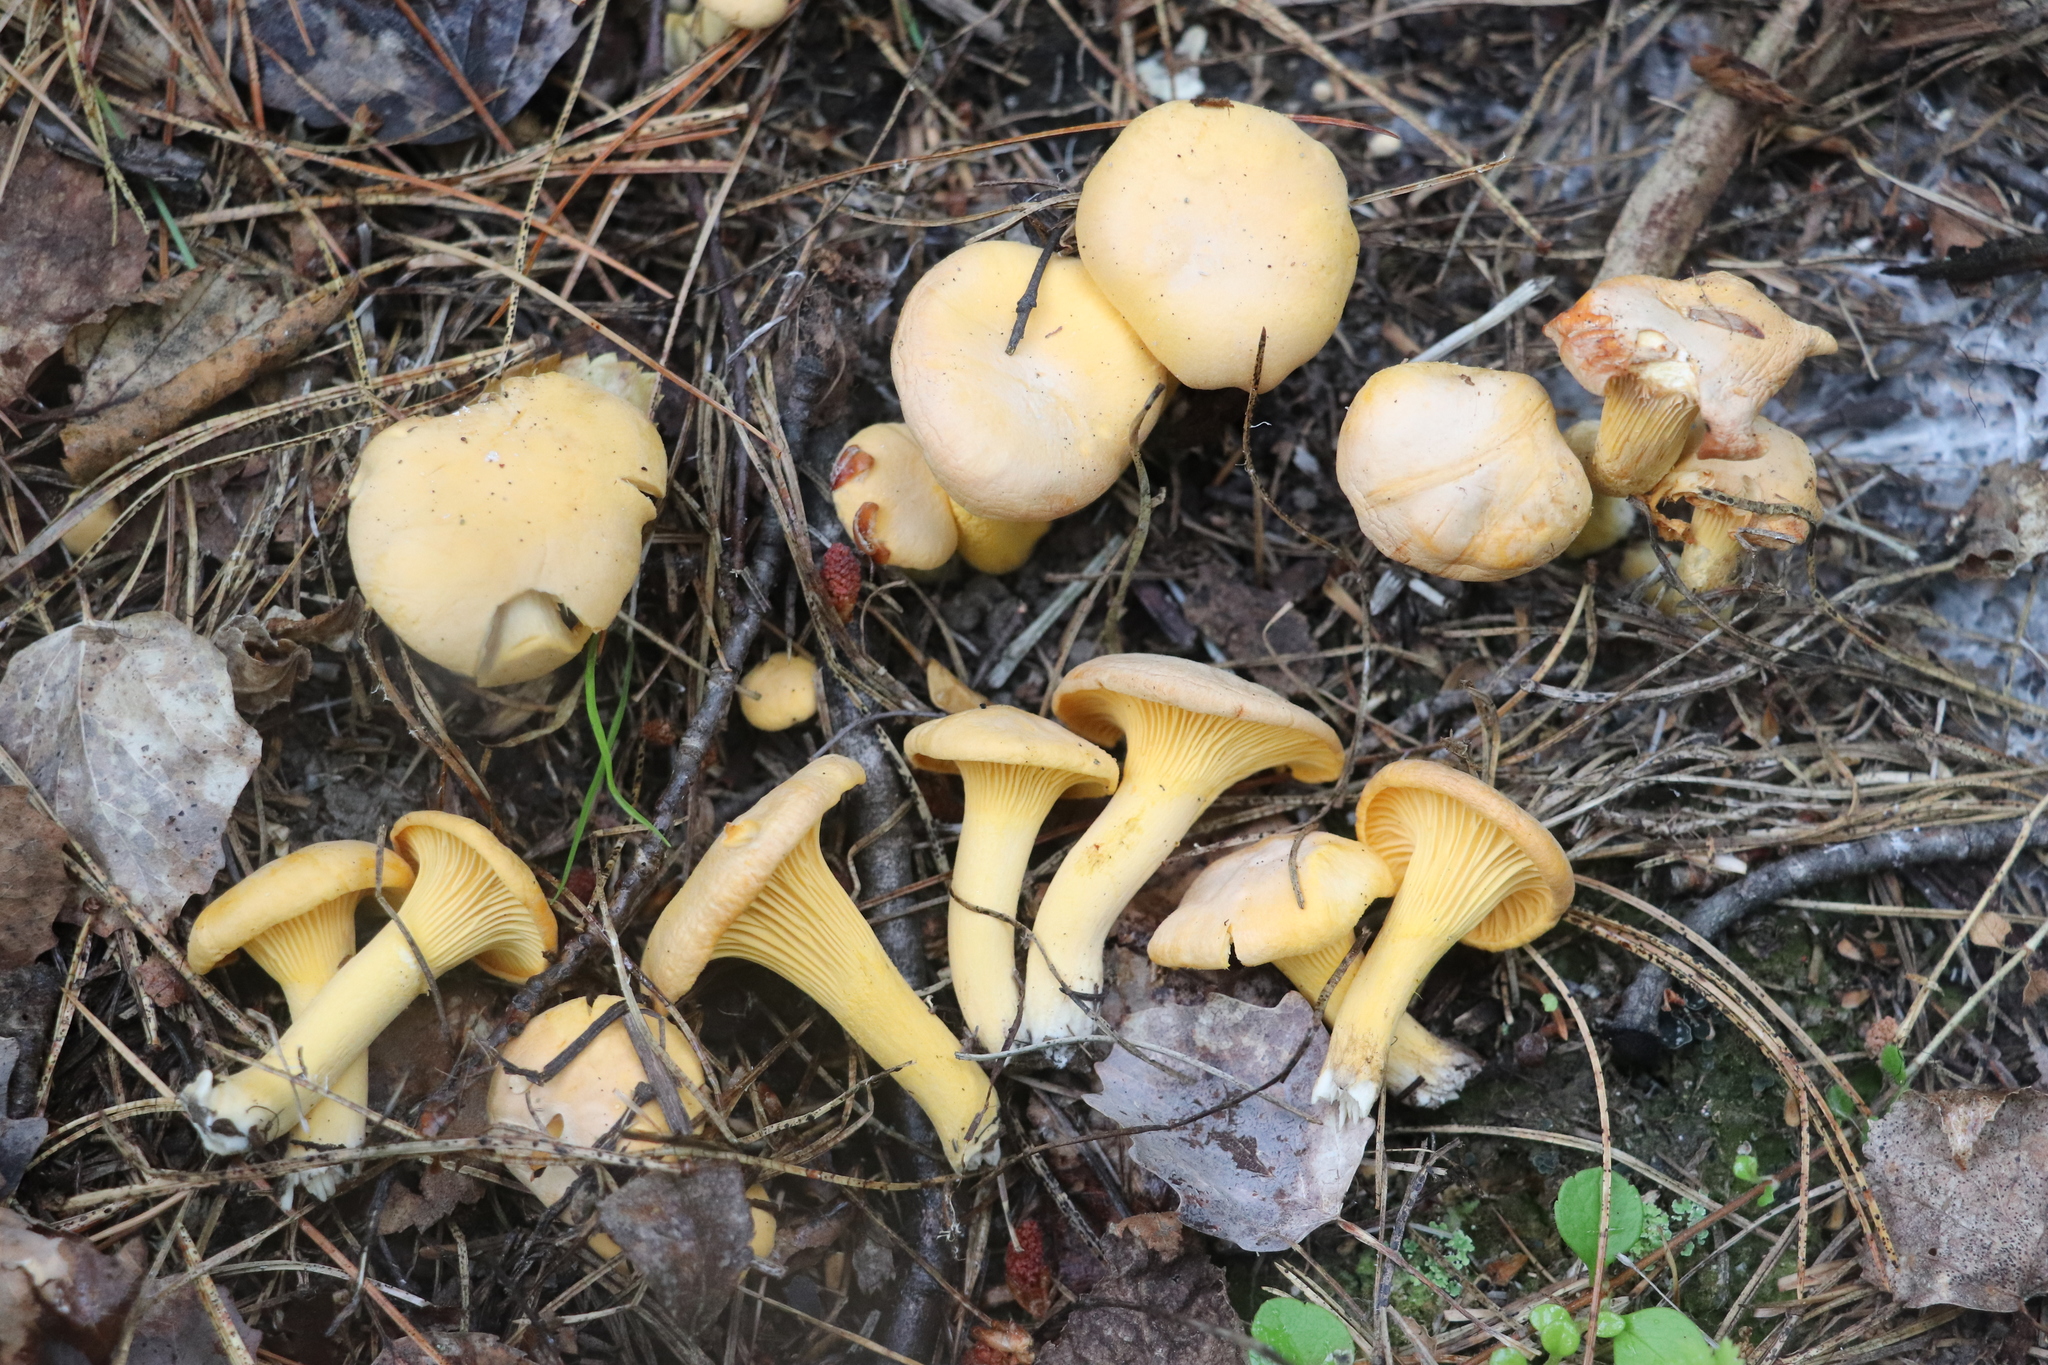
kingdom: Fungi
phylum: Basidiomycota
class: Agaricomycetes
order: Cantharellales
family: Hydnaceae
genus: Cantharellus
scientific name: Cantharellus cibarius
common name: Chanterelle
